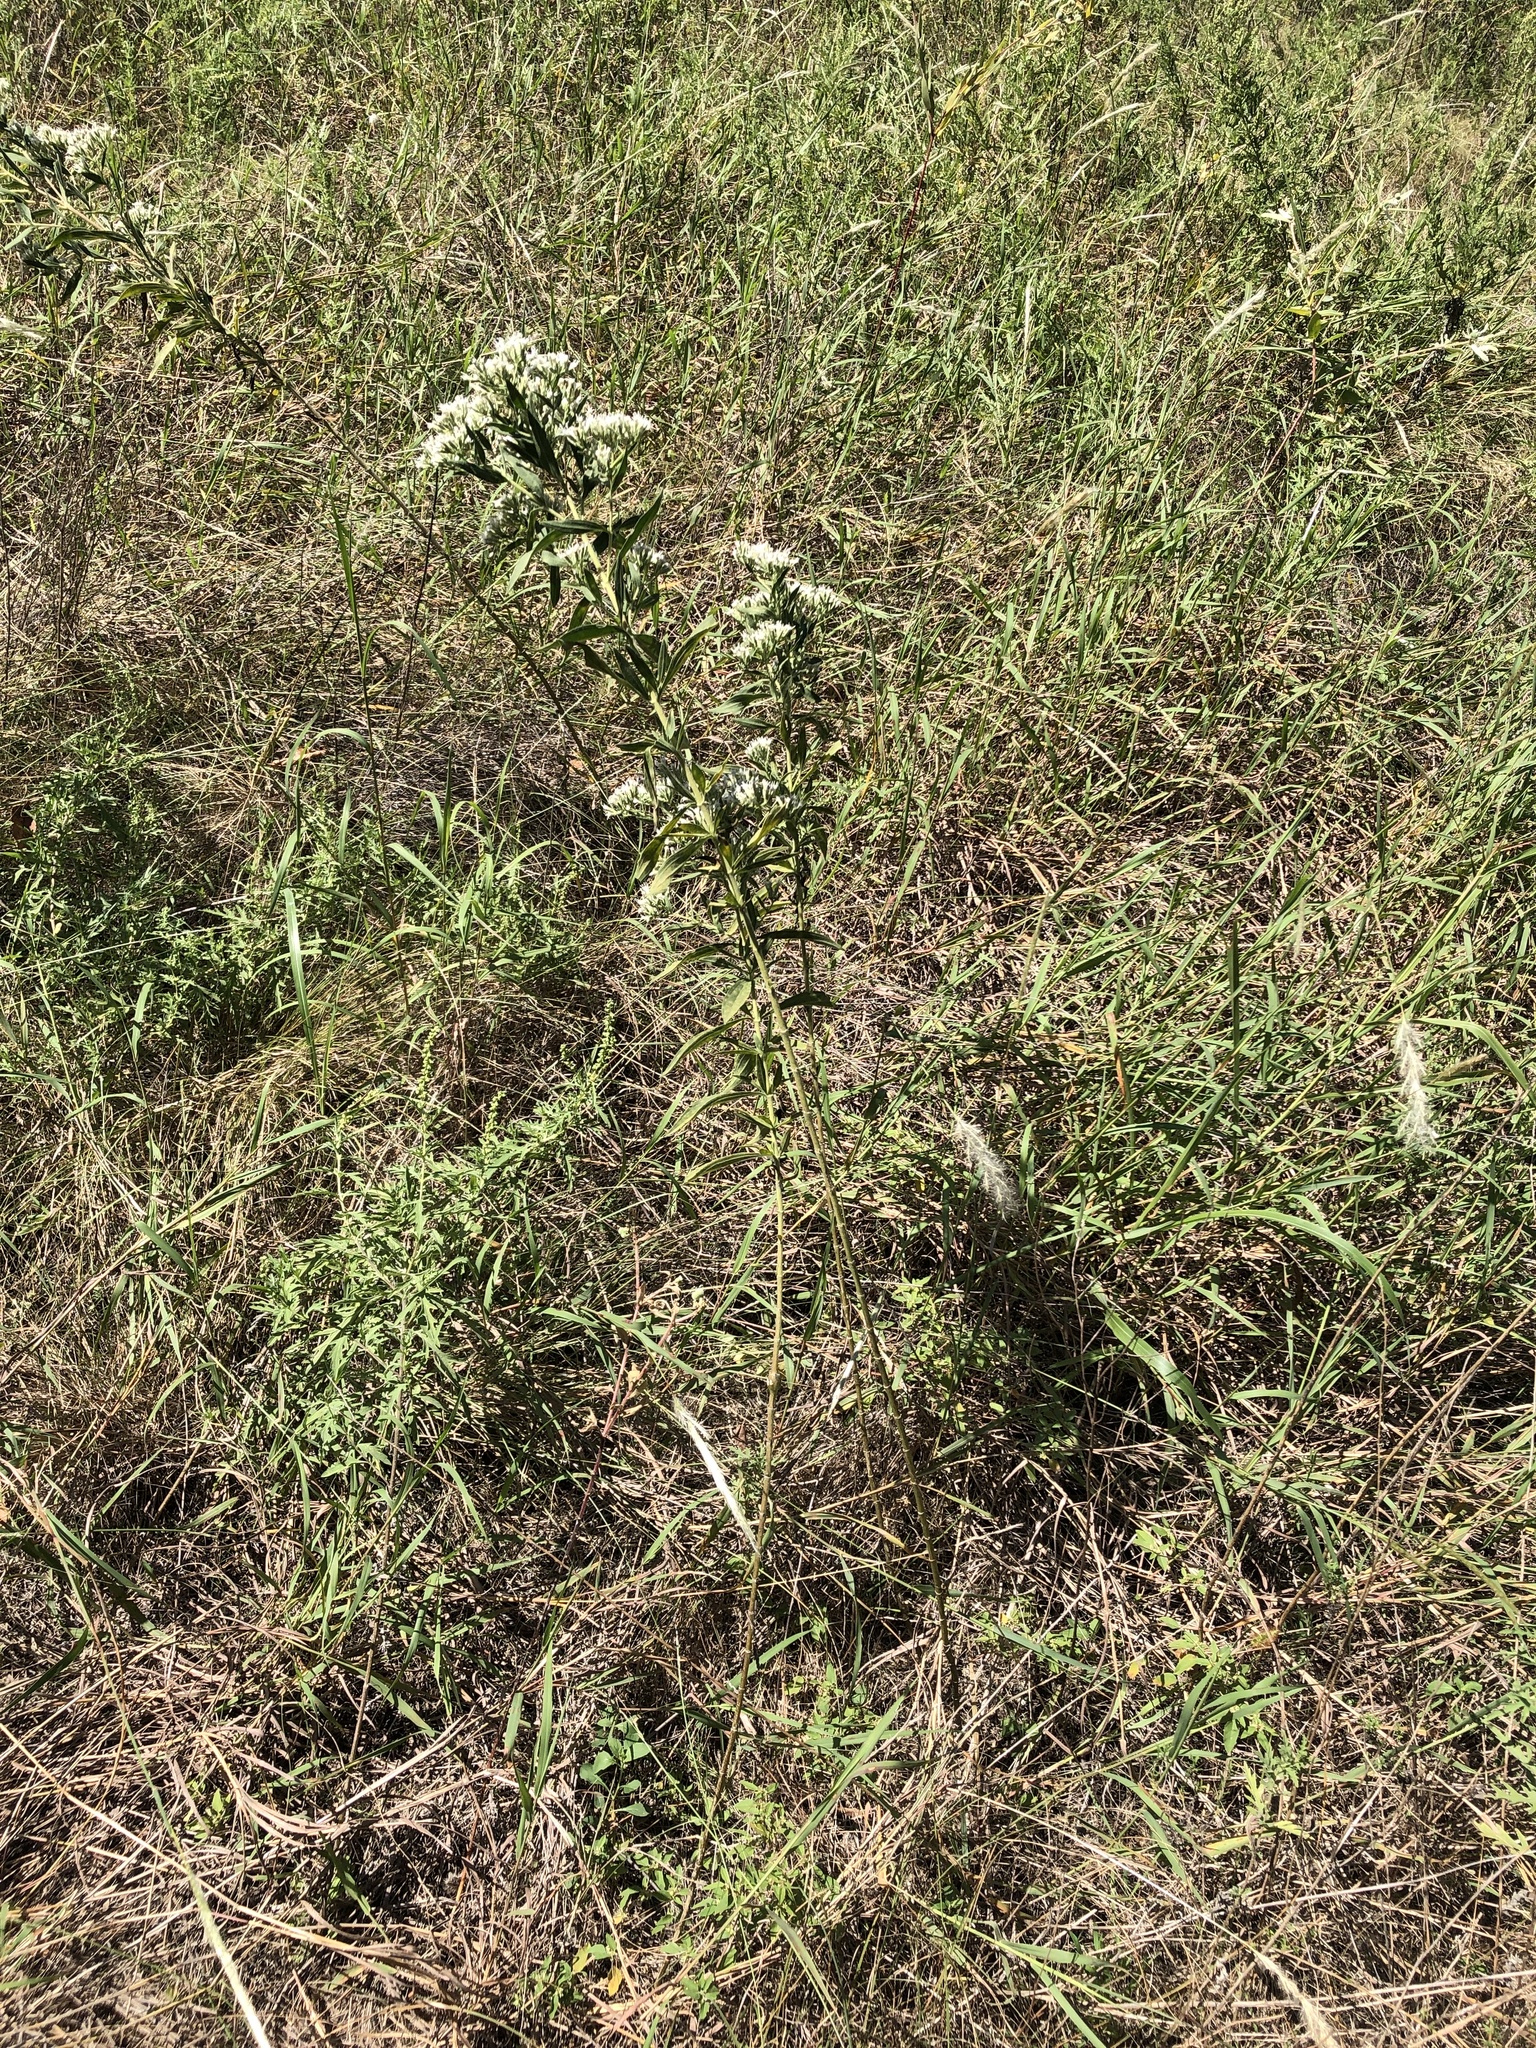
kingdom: Plantae
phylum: Tracheophyta
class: Magnoliopsida
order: Asterales
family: Asteraceae
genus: Eupatorium
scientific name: Eupatorium altissimum
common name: Tall thoroughwort
